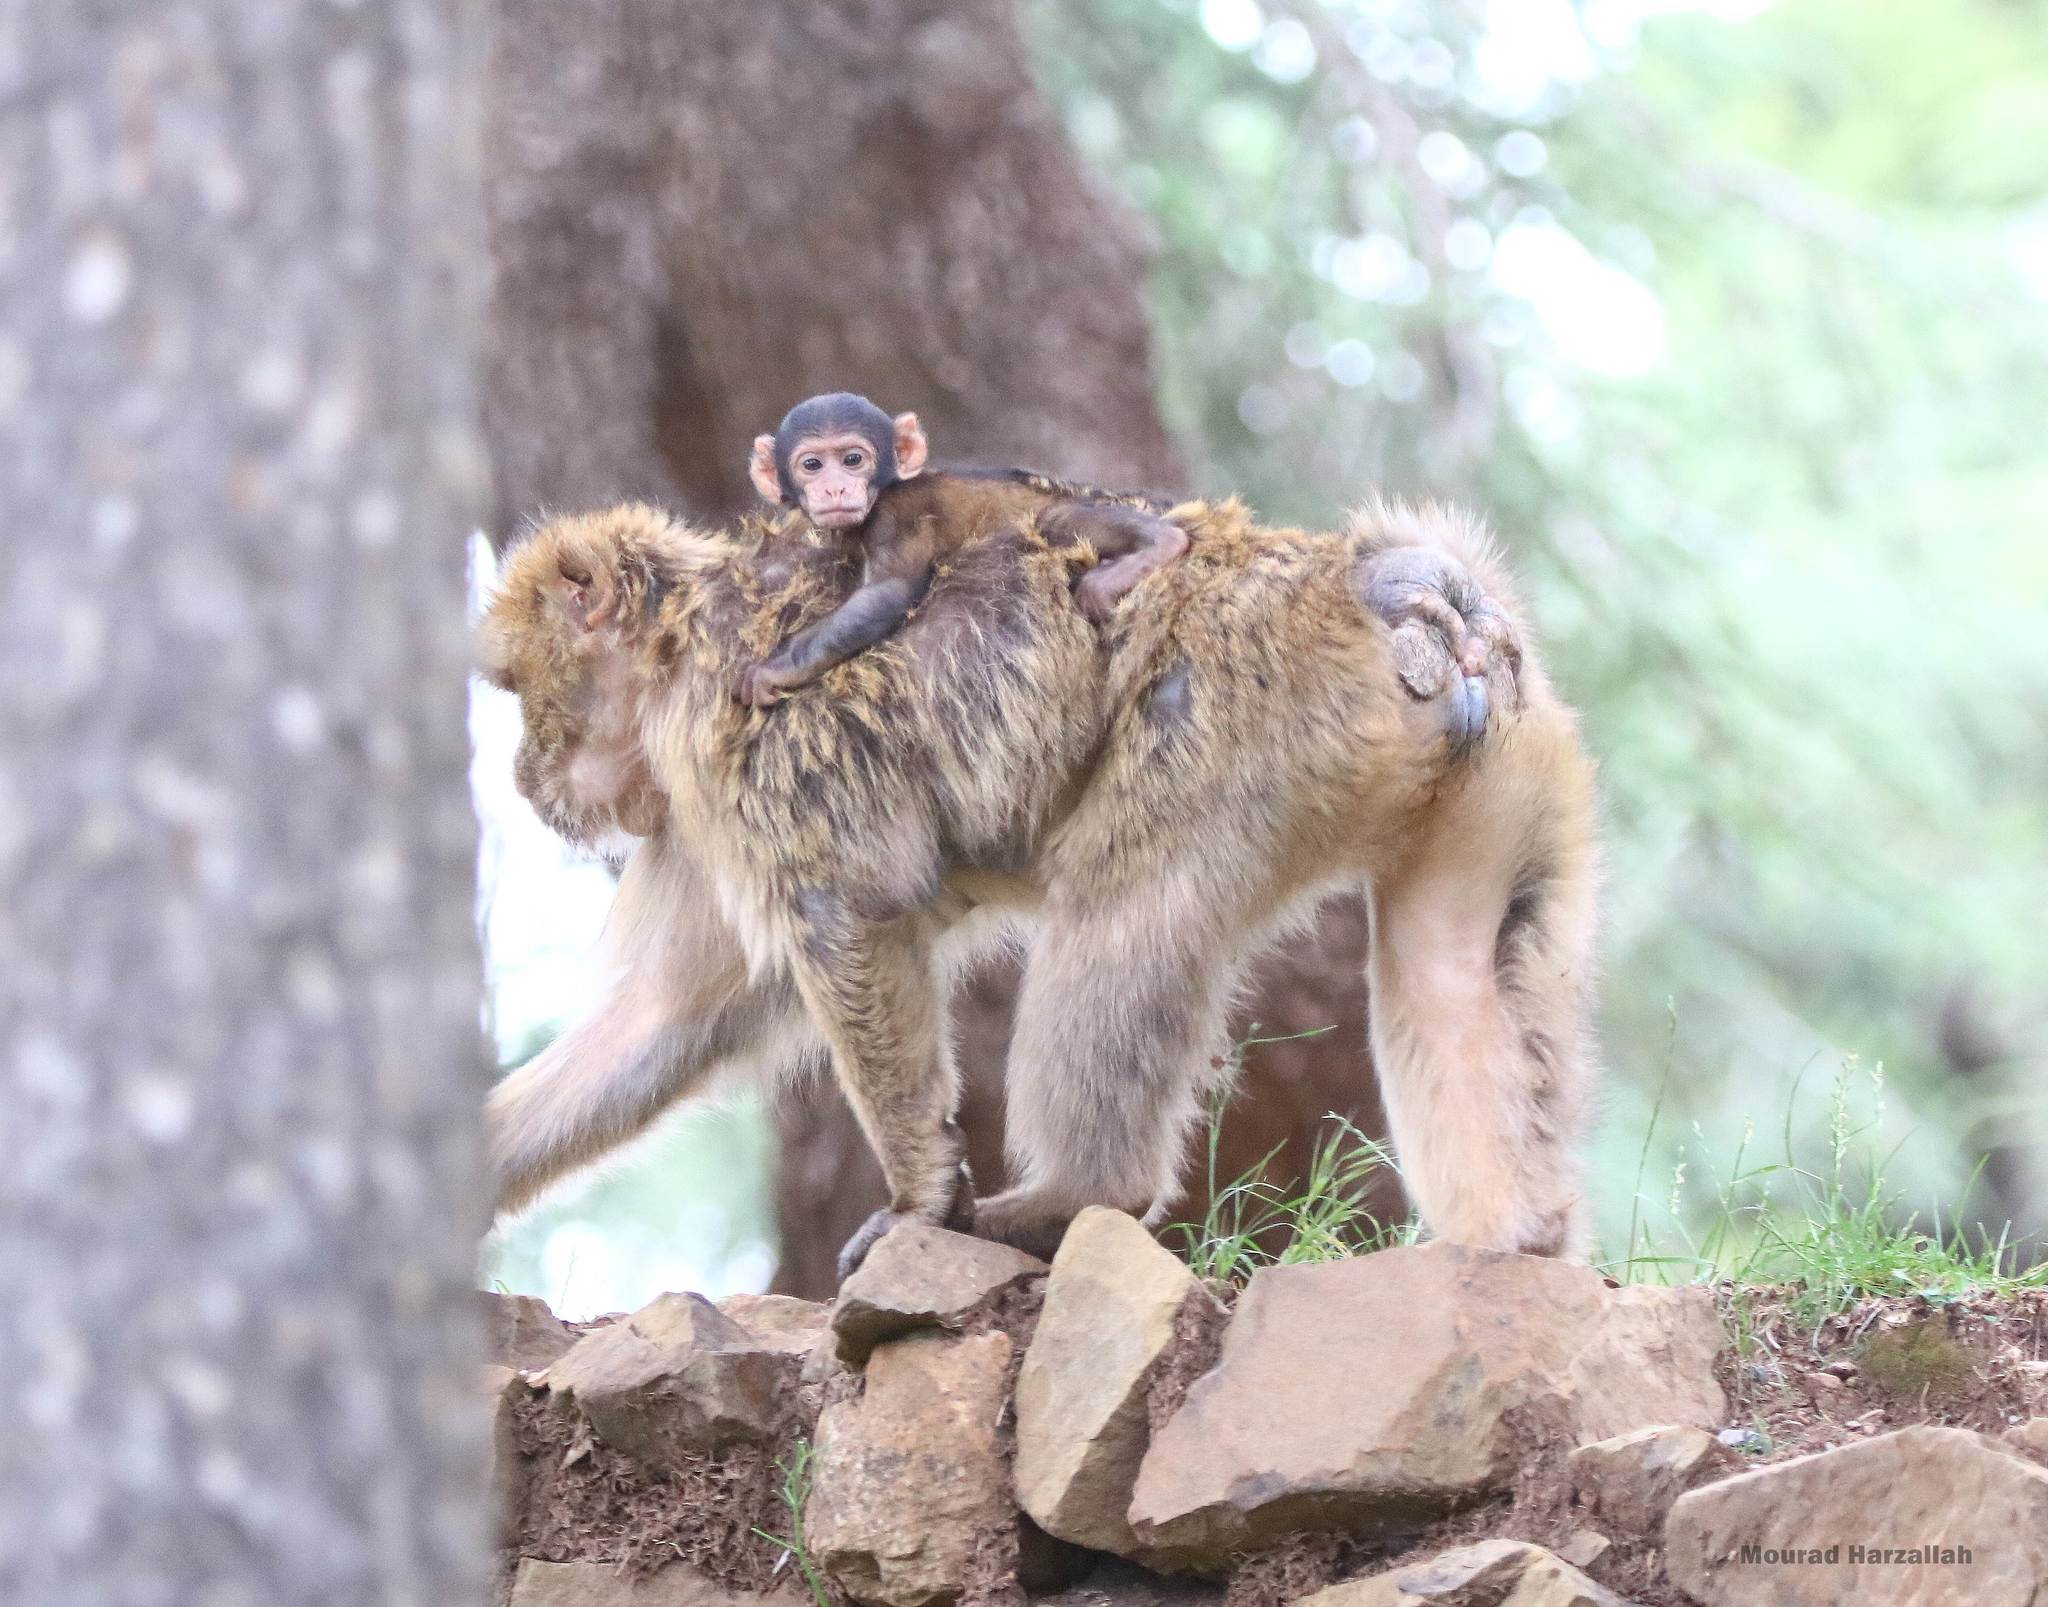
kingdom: Animalia
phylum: Chordata
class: Mammalia
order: Primates
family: Cercopithecidae
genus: Macaca
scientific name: Macaca sylvanus
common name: Barbary macaque
